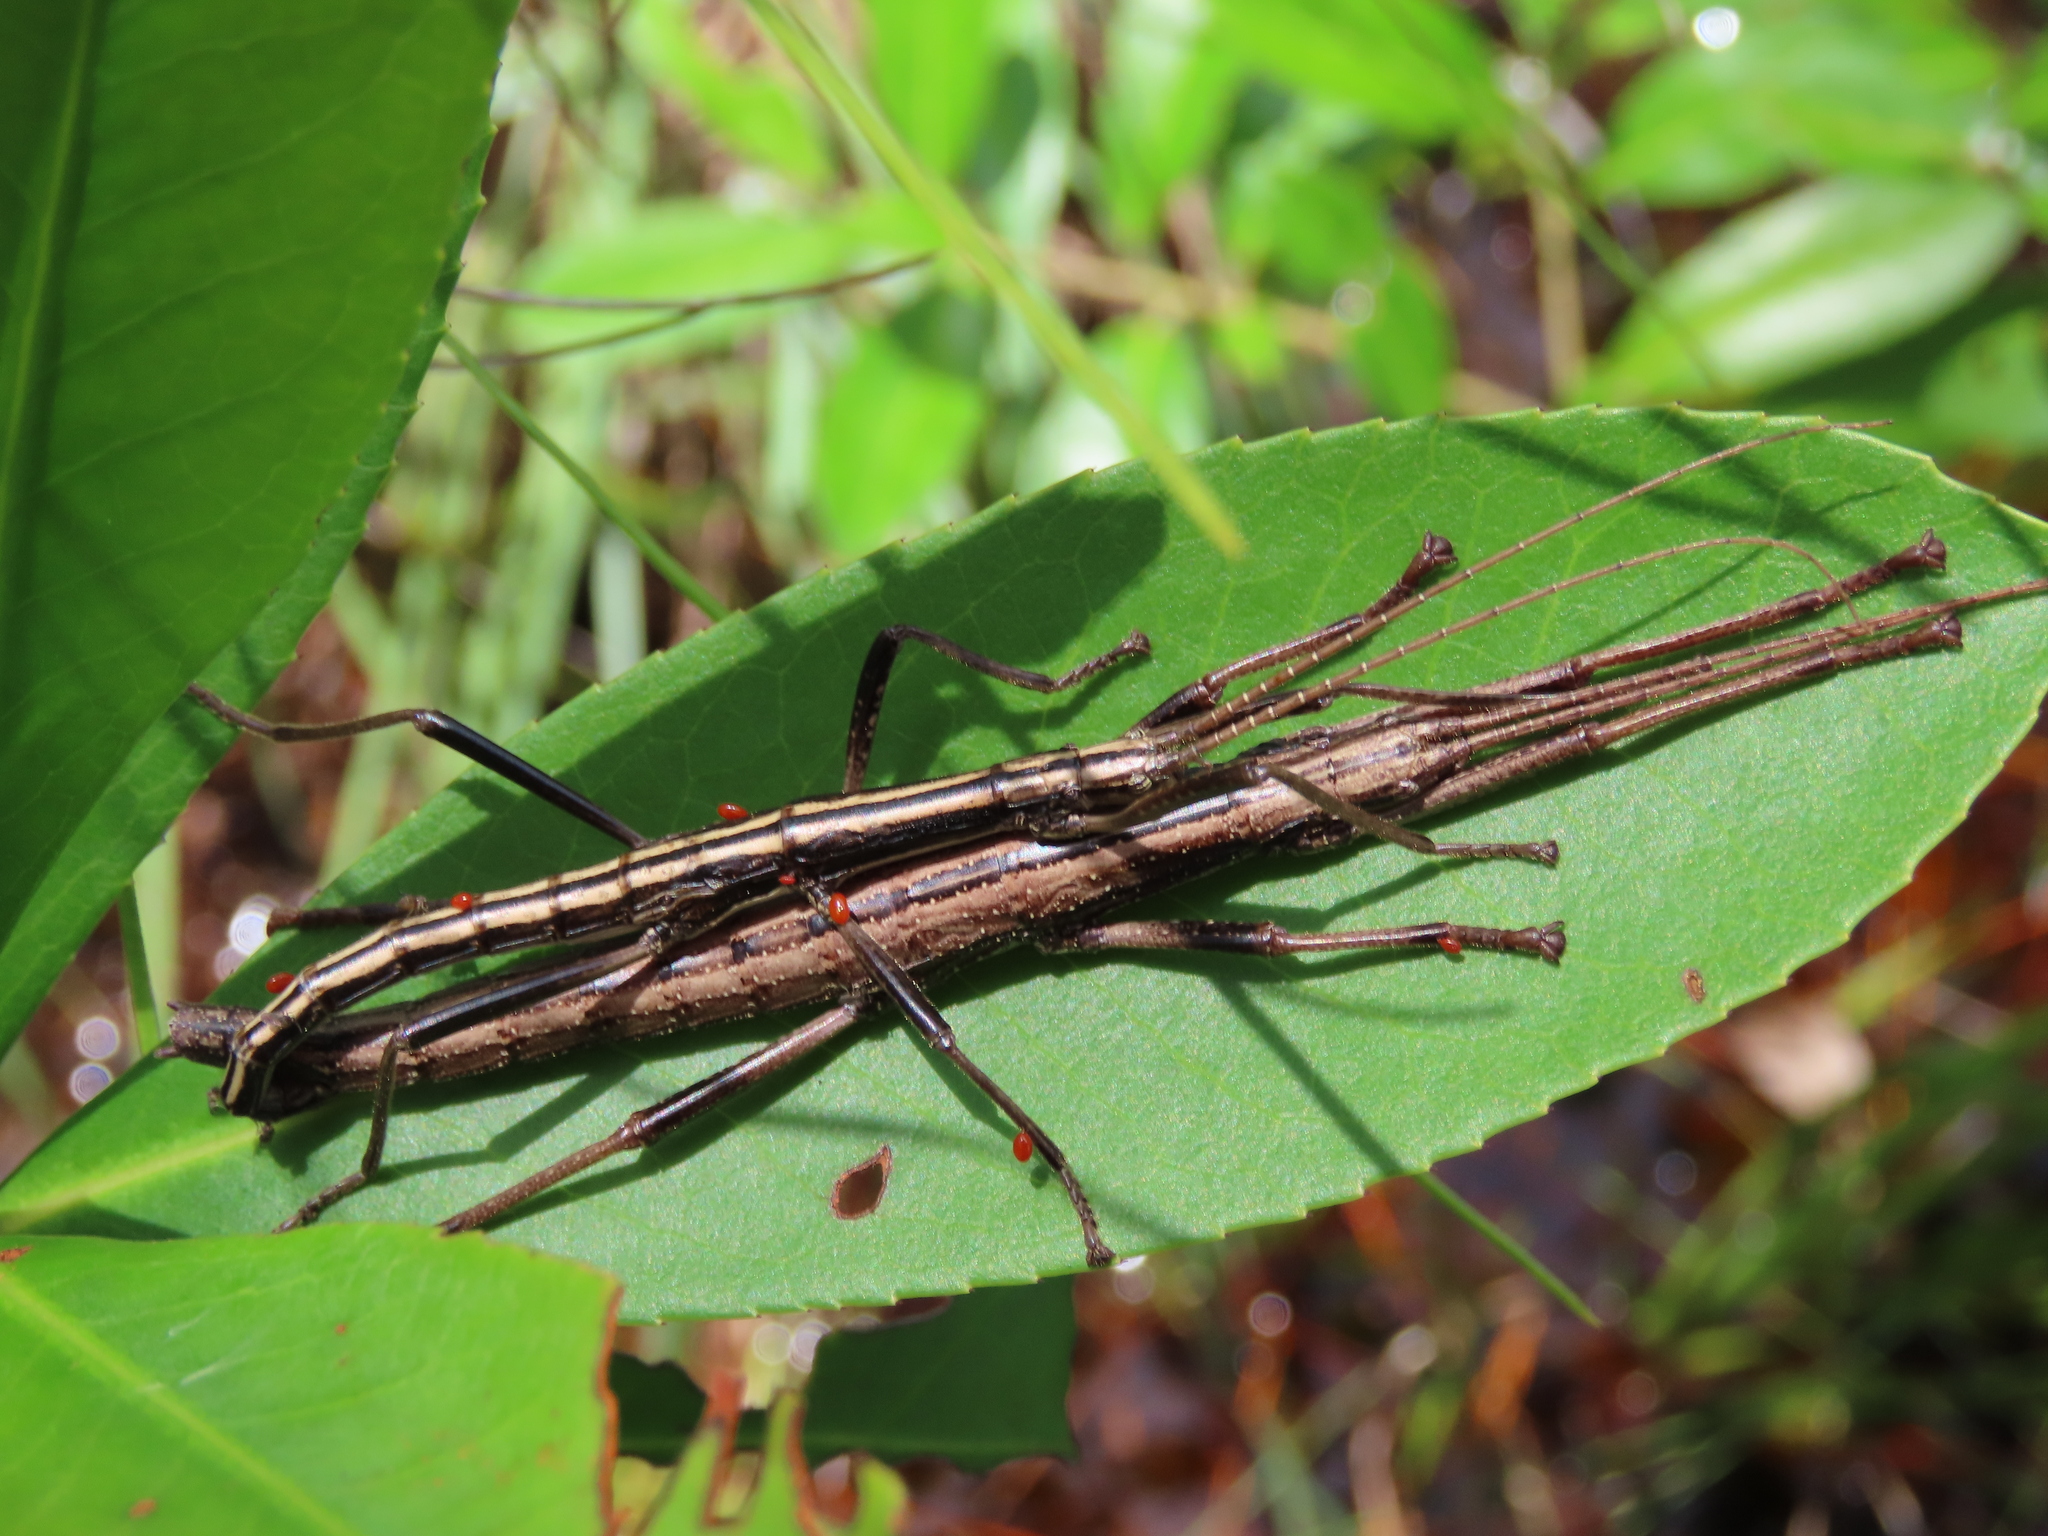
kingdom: Animalia
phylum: Arthropoda
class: Insecta
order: Phasmida
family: Pseudophasmatidae
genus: Anisomorpha
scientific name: Anisomorpha buprestoides
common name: Florida stick insect
